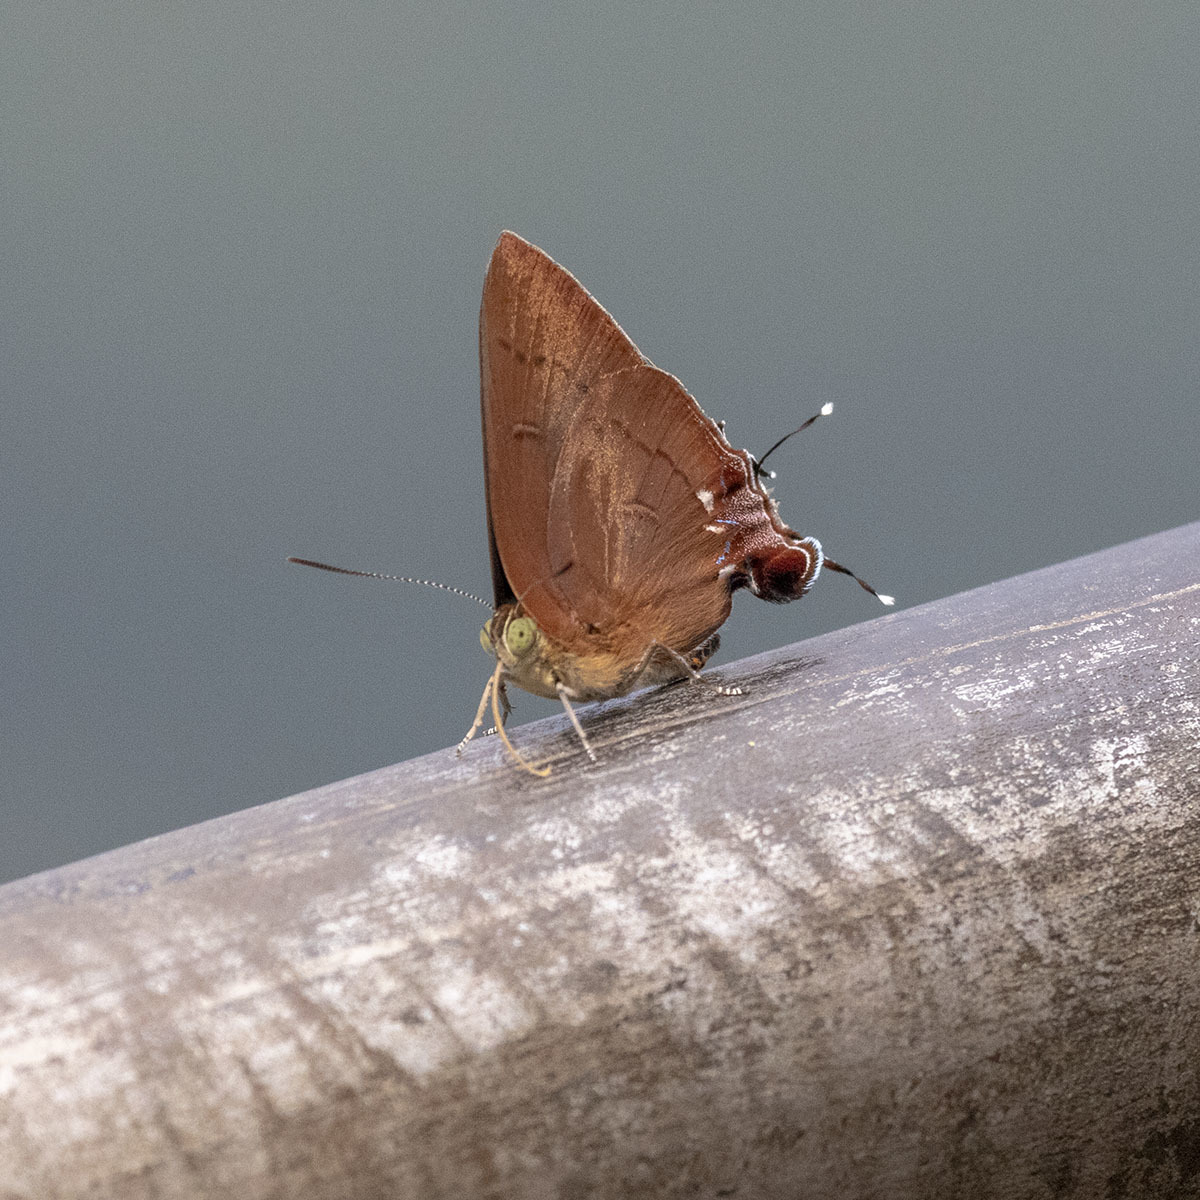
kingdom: Animalia
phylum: Arthropoda
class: Insecta
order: Lepidoptera
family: Lycaenidae
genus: Remelana
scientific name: Remelana jangala
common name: Chocolate royal
